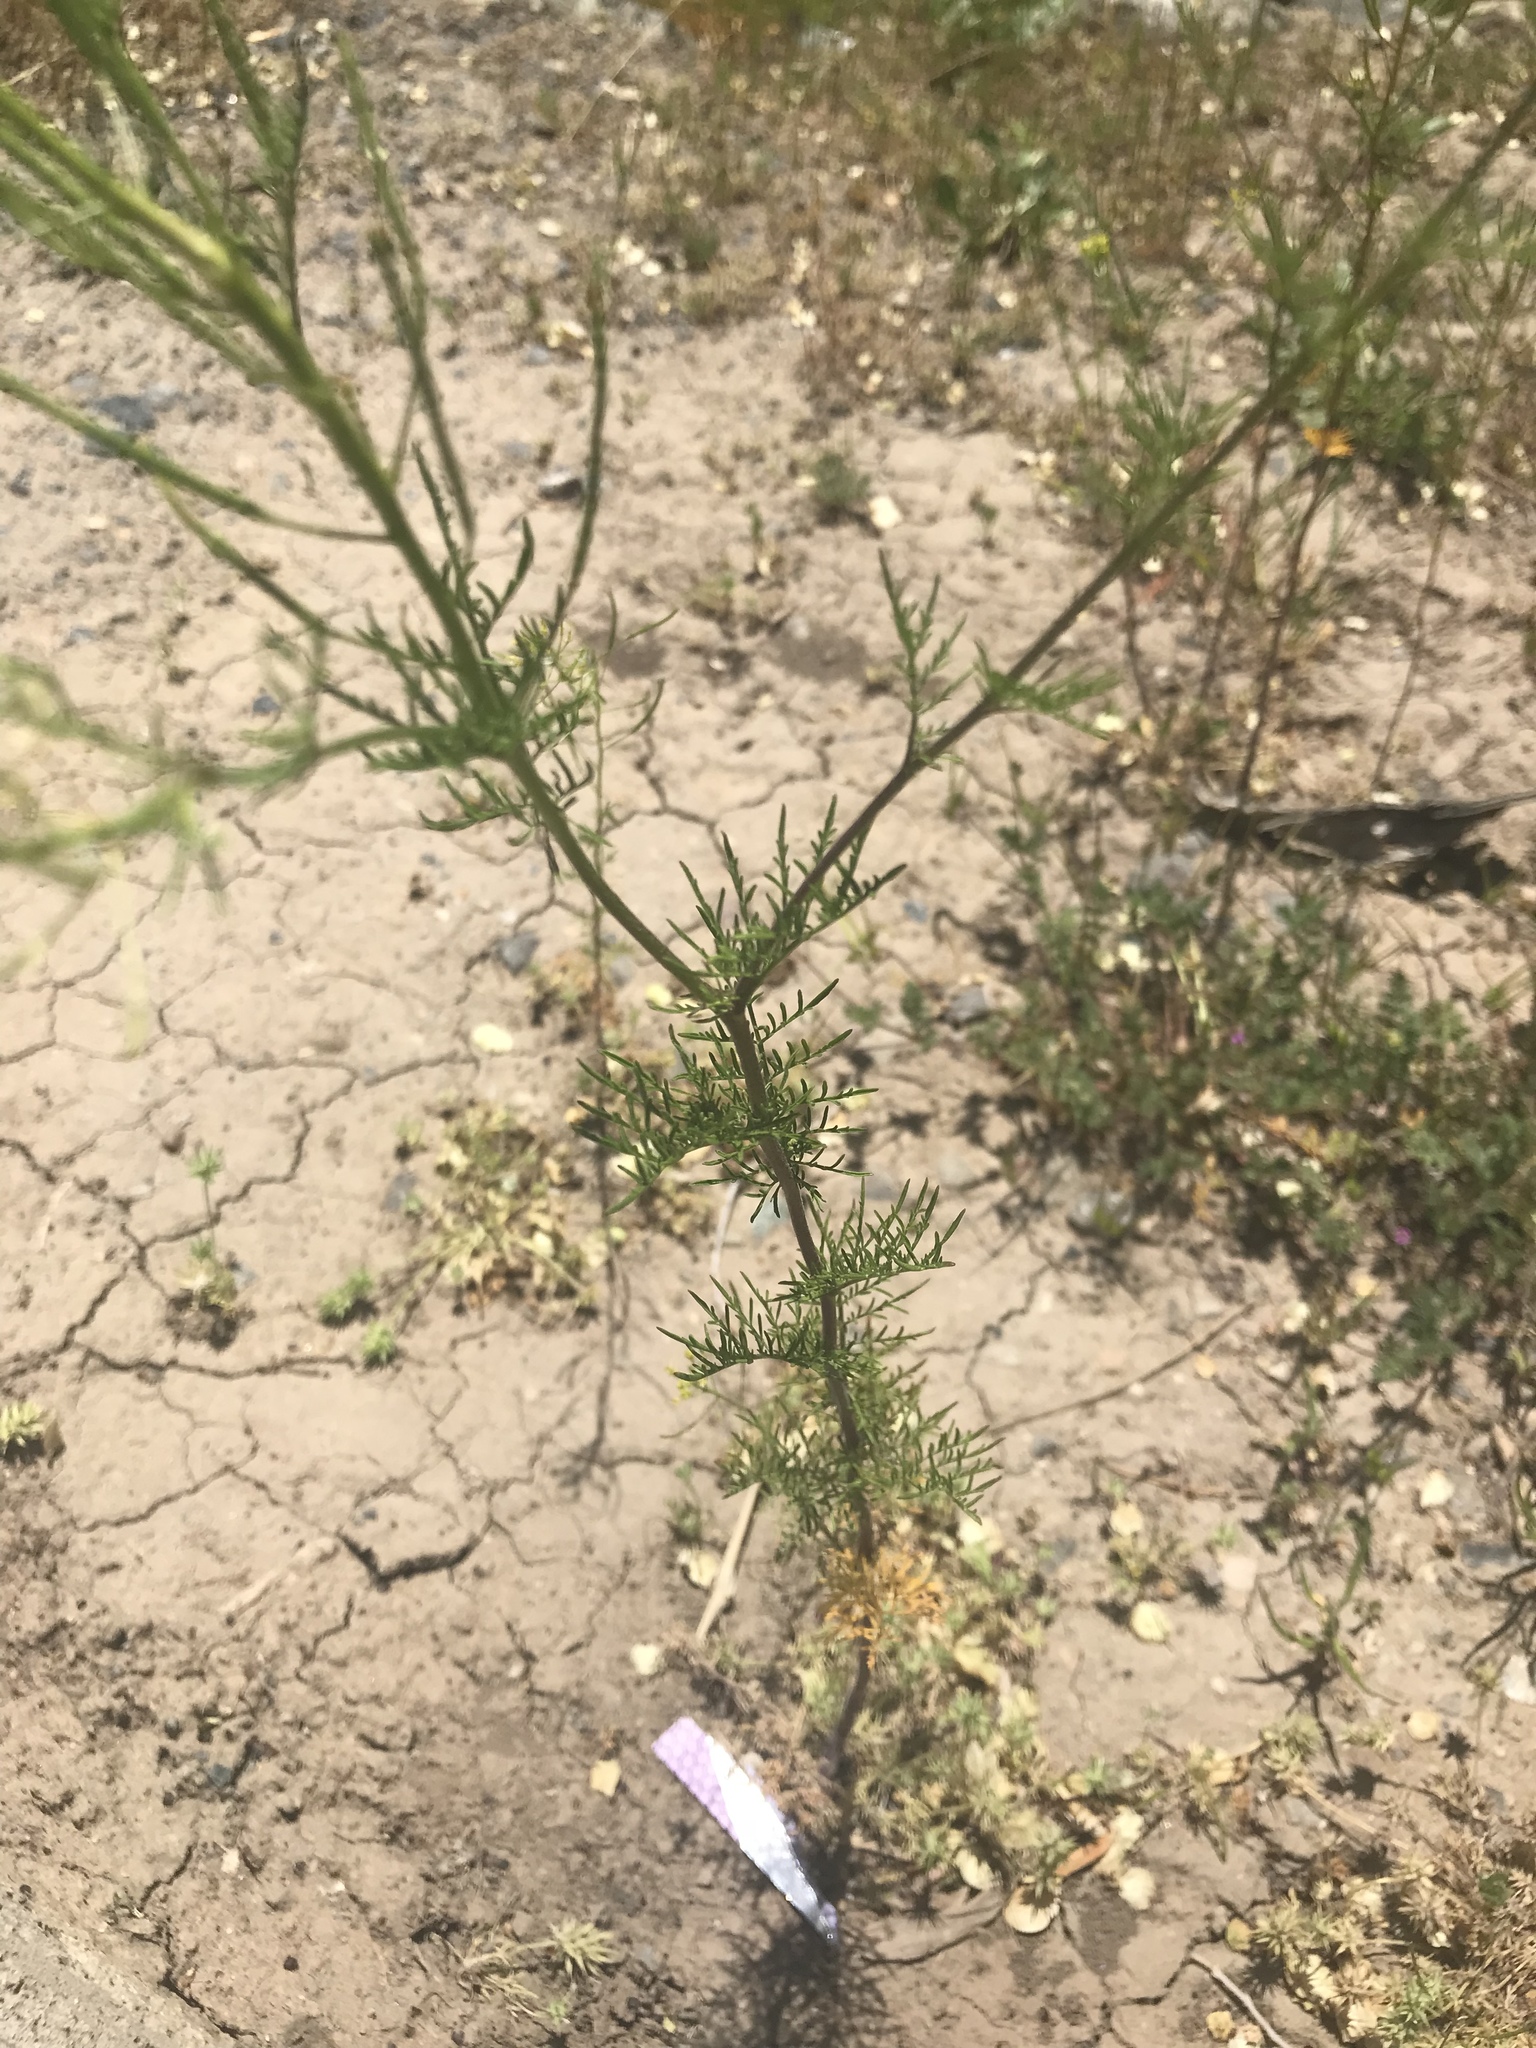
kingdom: Plantae
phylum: Tracheophyta
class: Magnoliopsida
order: Brassicales
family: Brassicaceae
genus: Descurainia
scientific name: Descurainia sophia
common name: Flixweed
